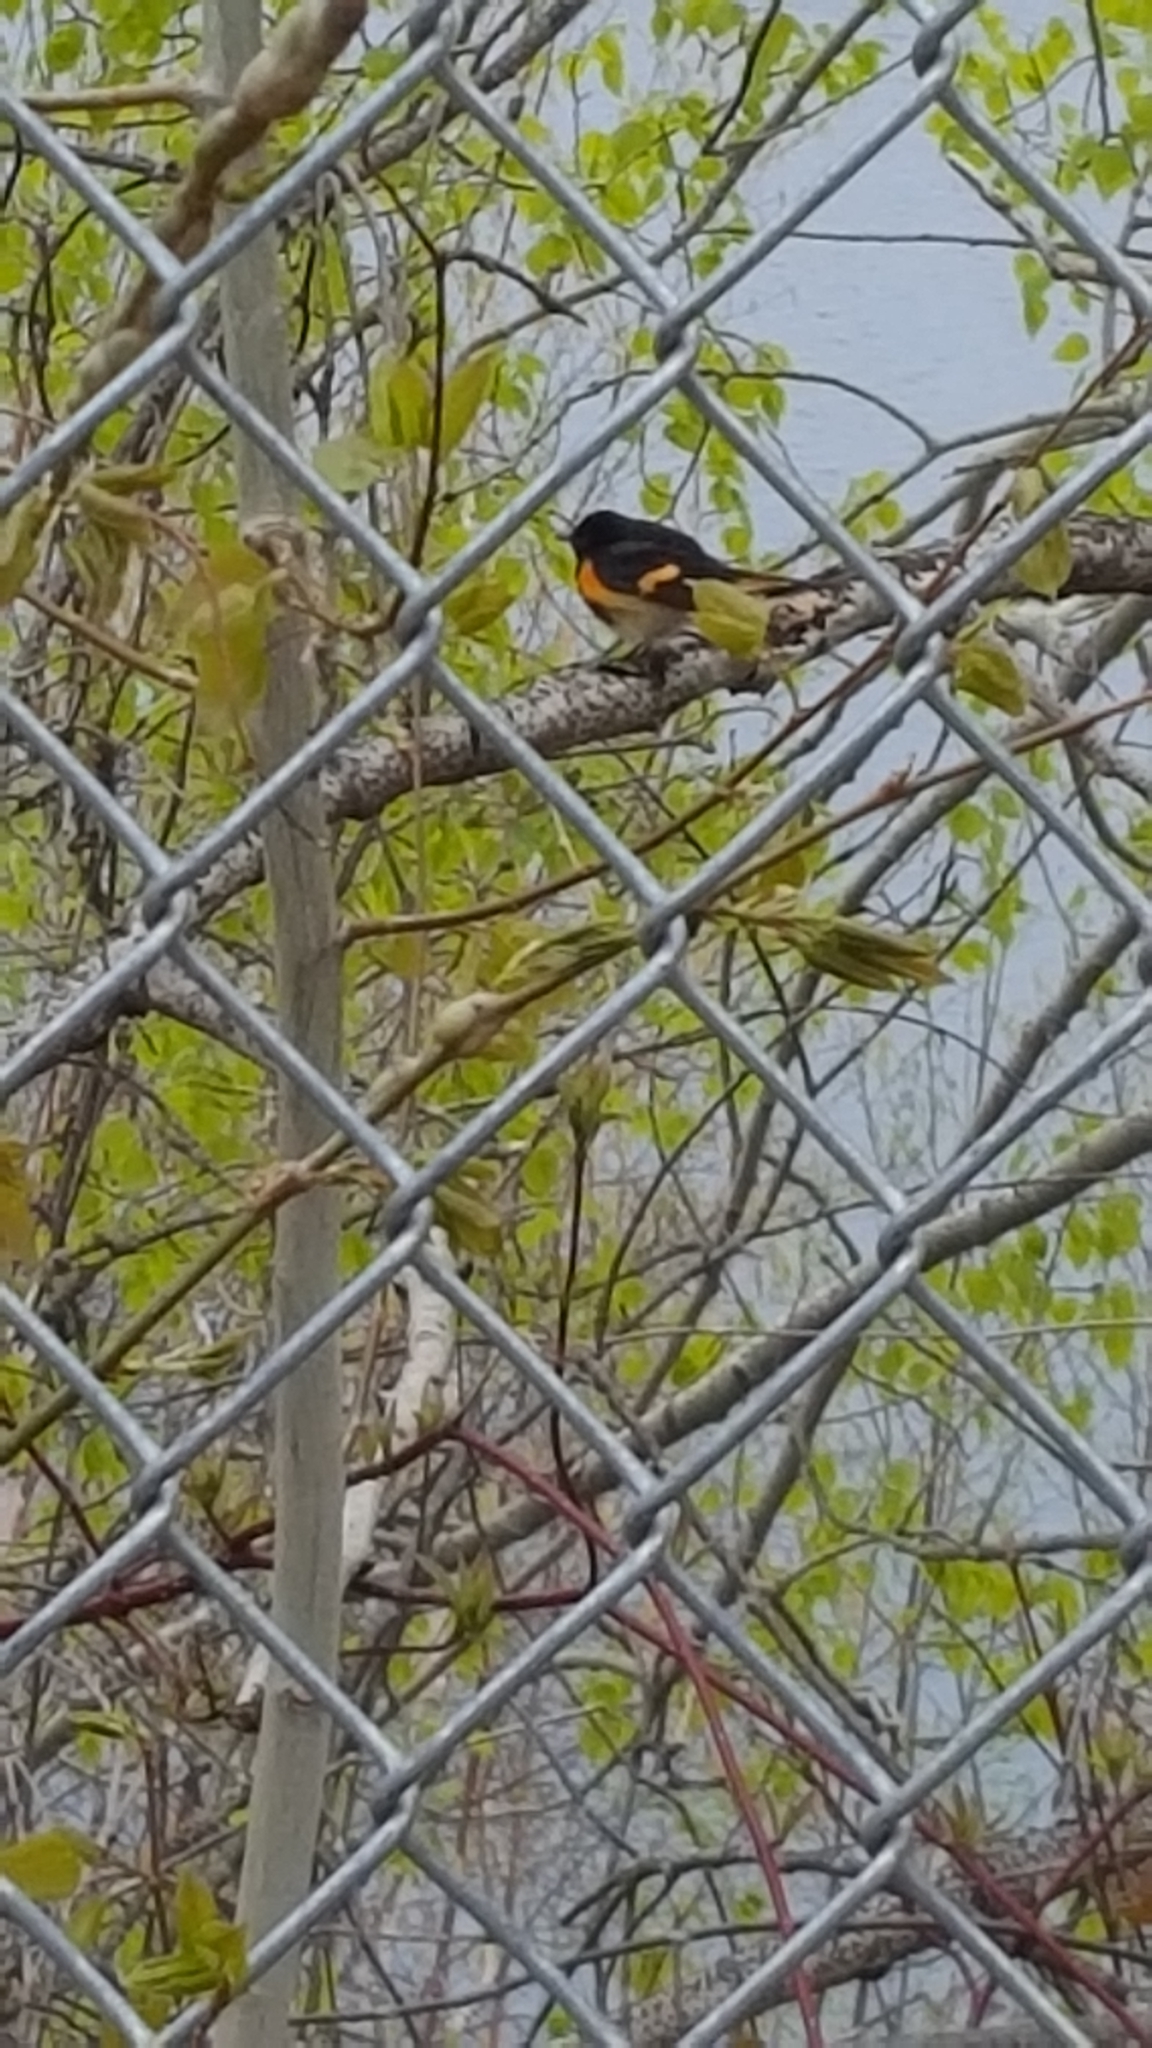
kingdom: Animalia
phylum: Chordata
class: Aves
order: Passeriformes
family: Parulidae
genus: Setophaga
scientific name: Setophaga ruticilla
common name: American redstart
